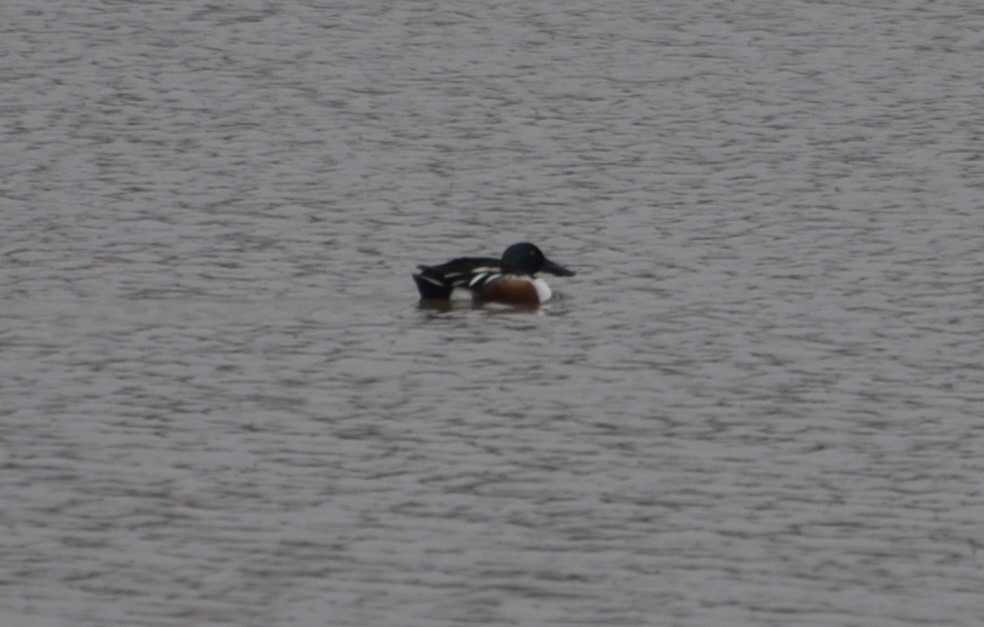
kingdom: Animalia
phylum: Chordata
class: Aves
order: Anseriformes
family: Anatidae
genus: Spatula
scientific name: Spatula clypeata
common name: Northern shoveler
